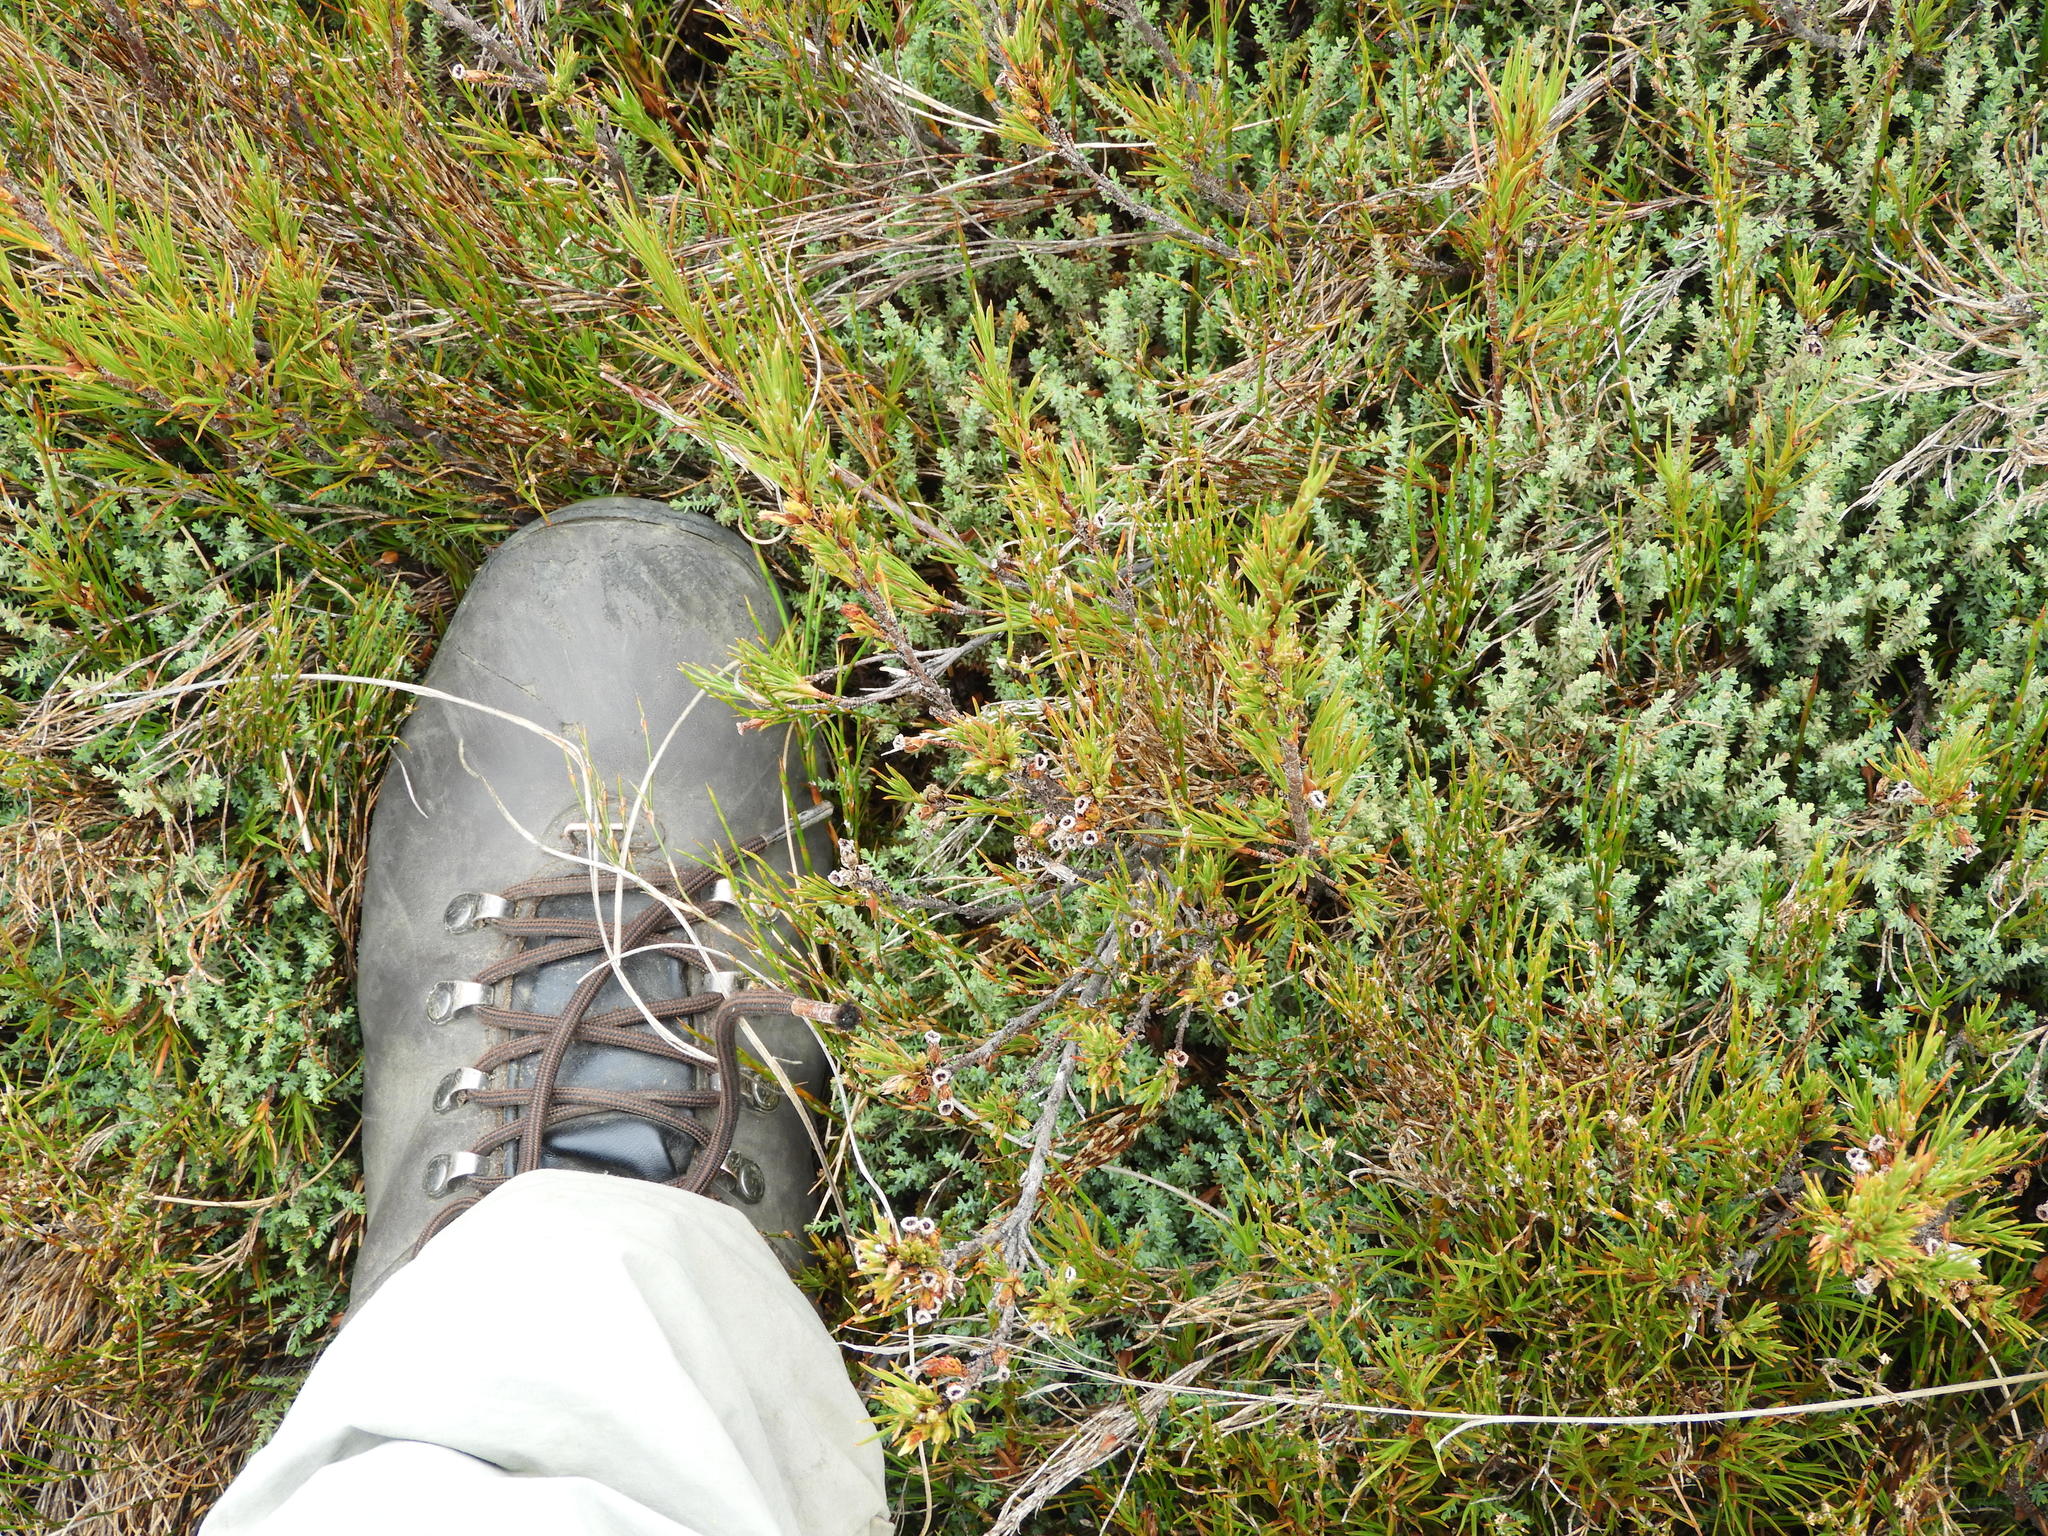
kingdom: Plantae
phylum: Tracheophyta
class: Pinopsida
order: Pinales
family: Podocarpaceae
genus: Lepidothamnus
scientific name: Lepidothamnus laxifolius
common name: Pygmy pine
